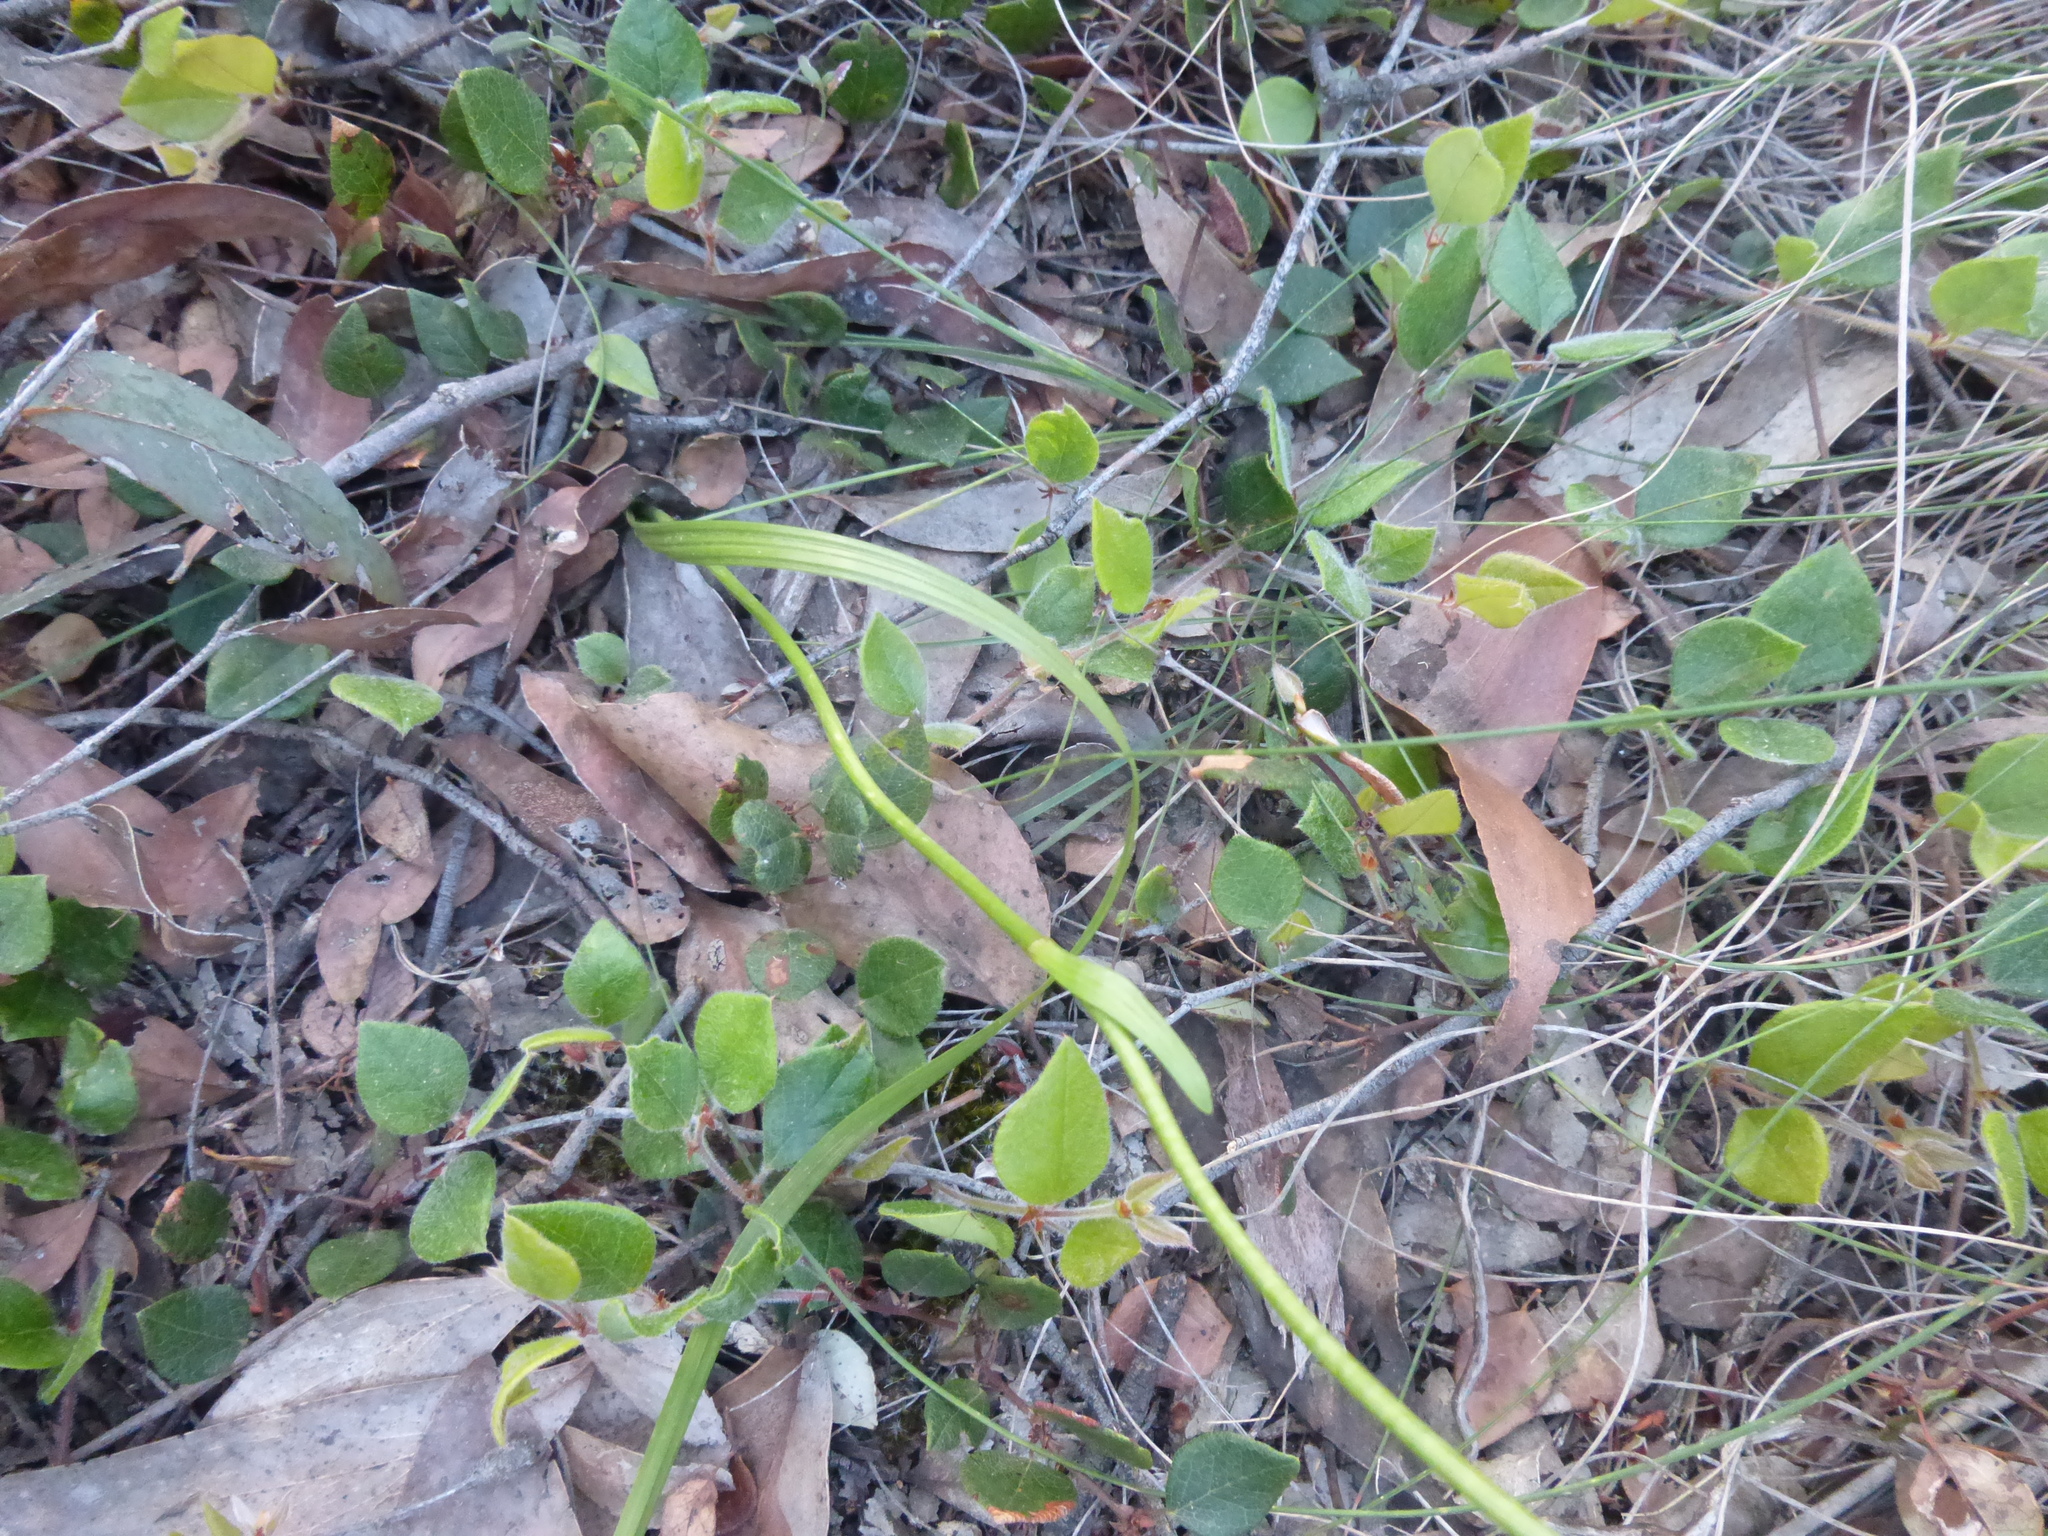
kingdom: Plantae
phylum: Tracheophyta
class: Liliopsida
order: Liliales
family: Colchicaceae
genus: Burchardia
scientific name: Burchardia umbellata
